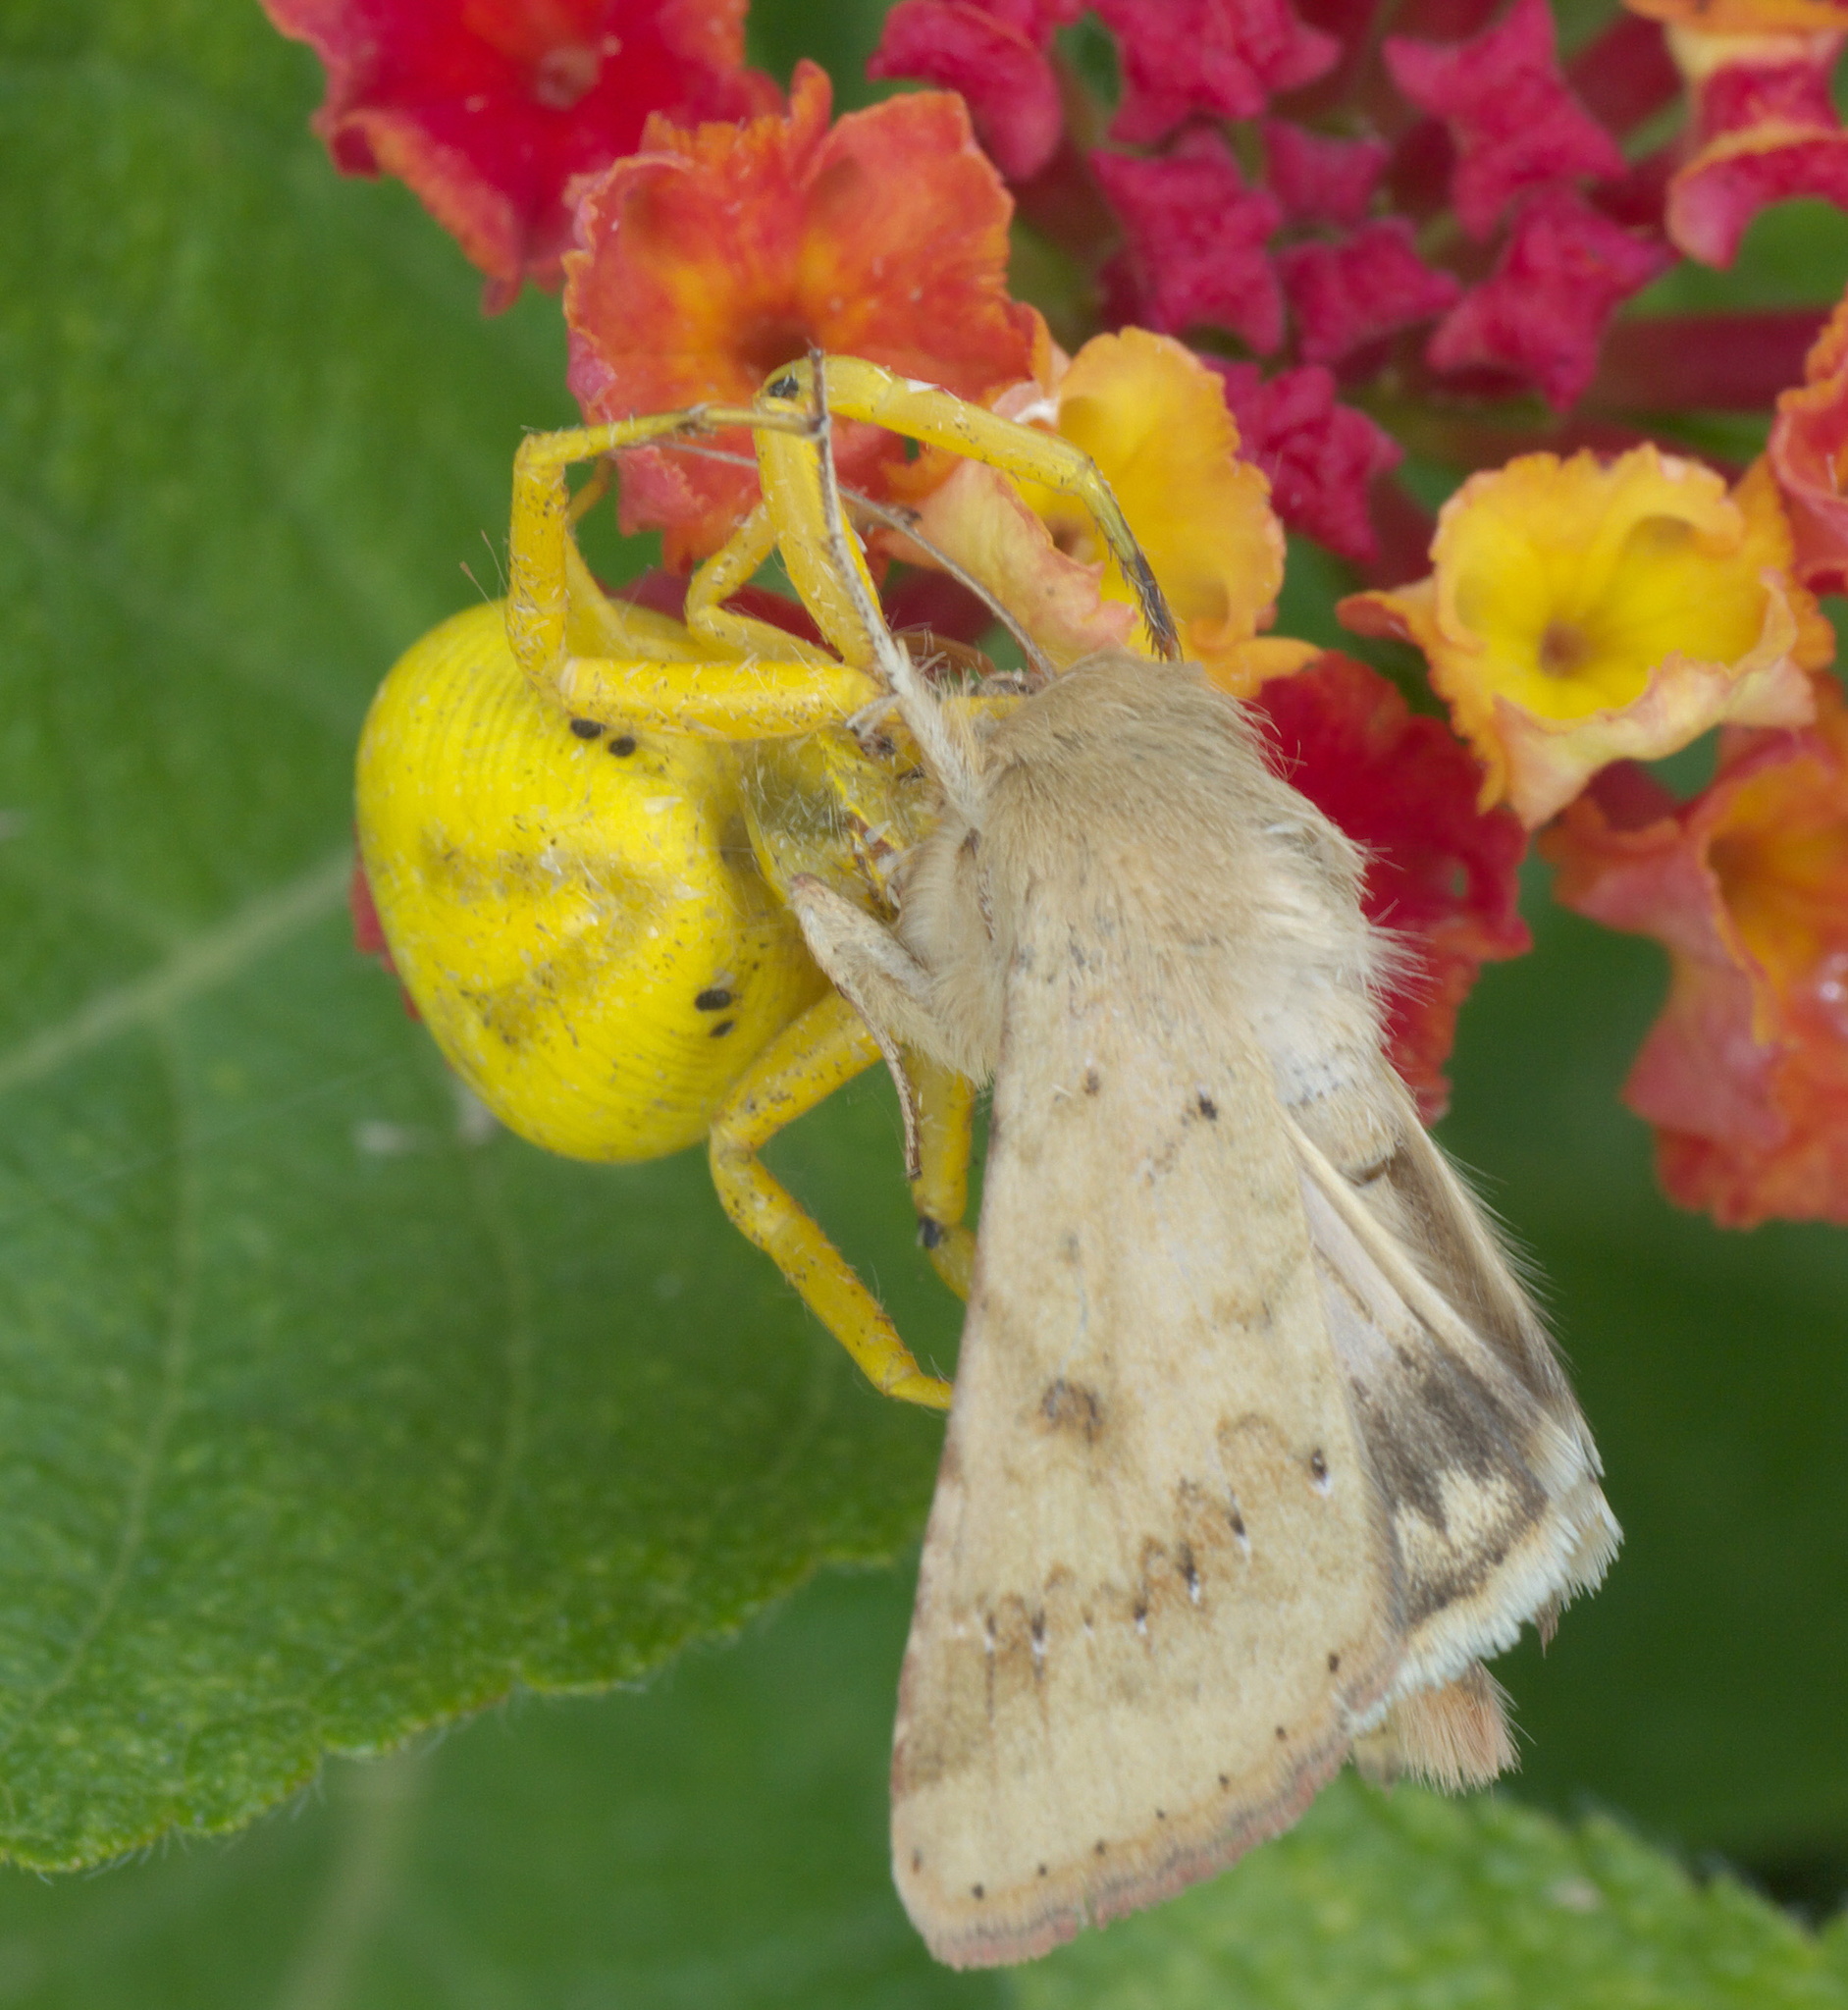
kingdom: Animalia
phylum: Arthropoda
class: Arachnida
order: Araneae
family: Thomisidae
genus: Misumenoides
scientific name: Misumenoides formosipes
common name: White-banded crab spider
